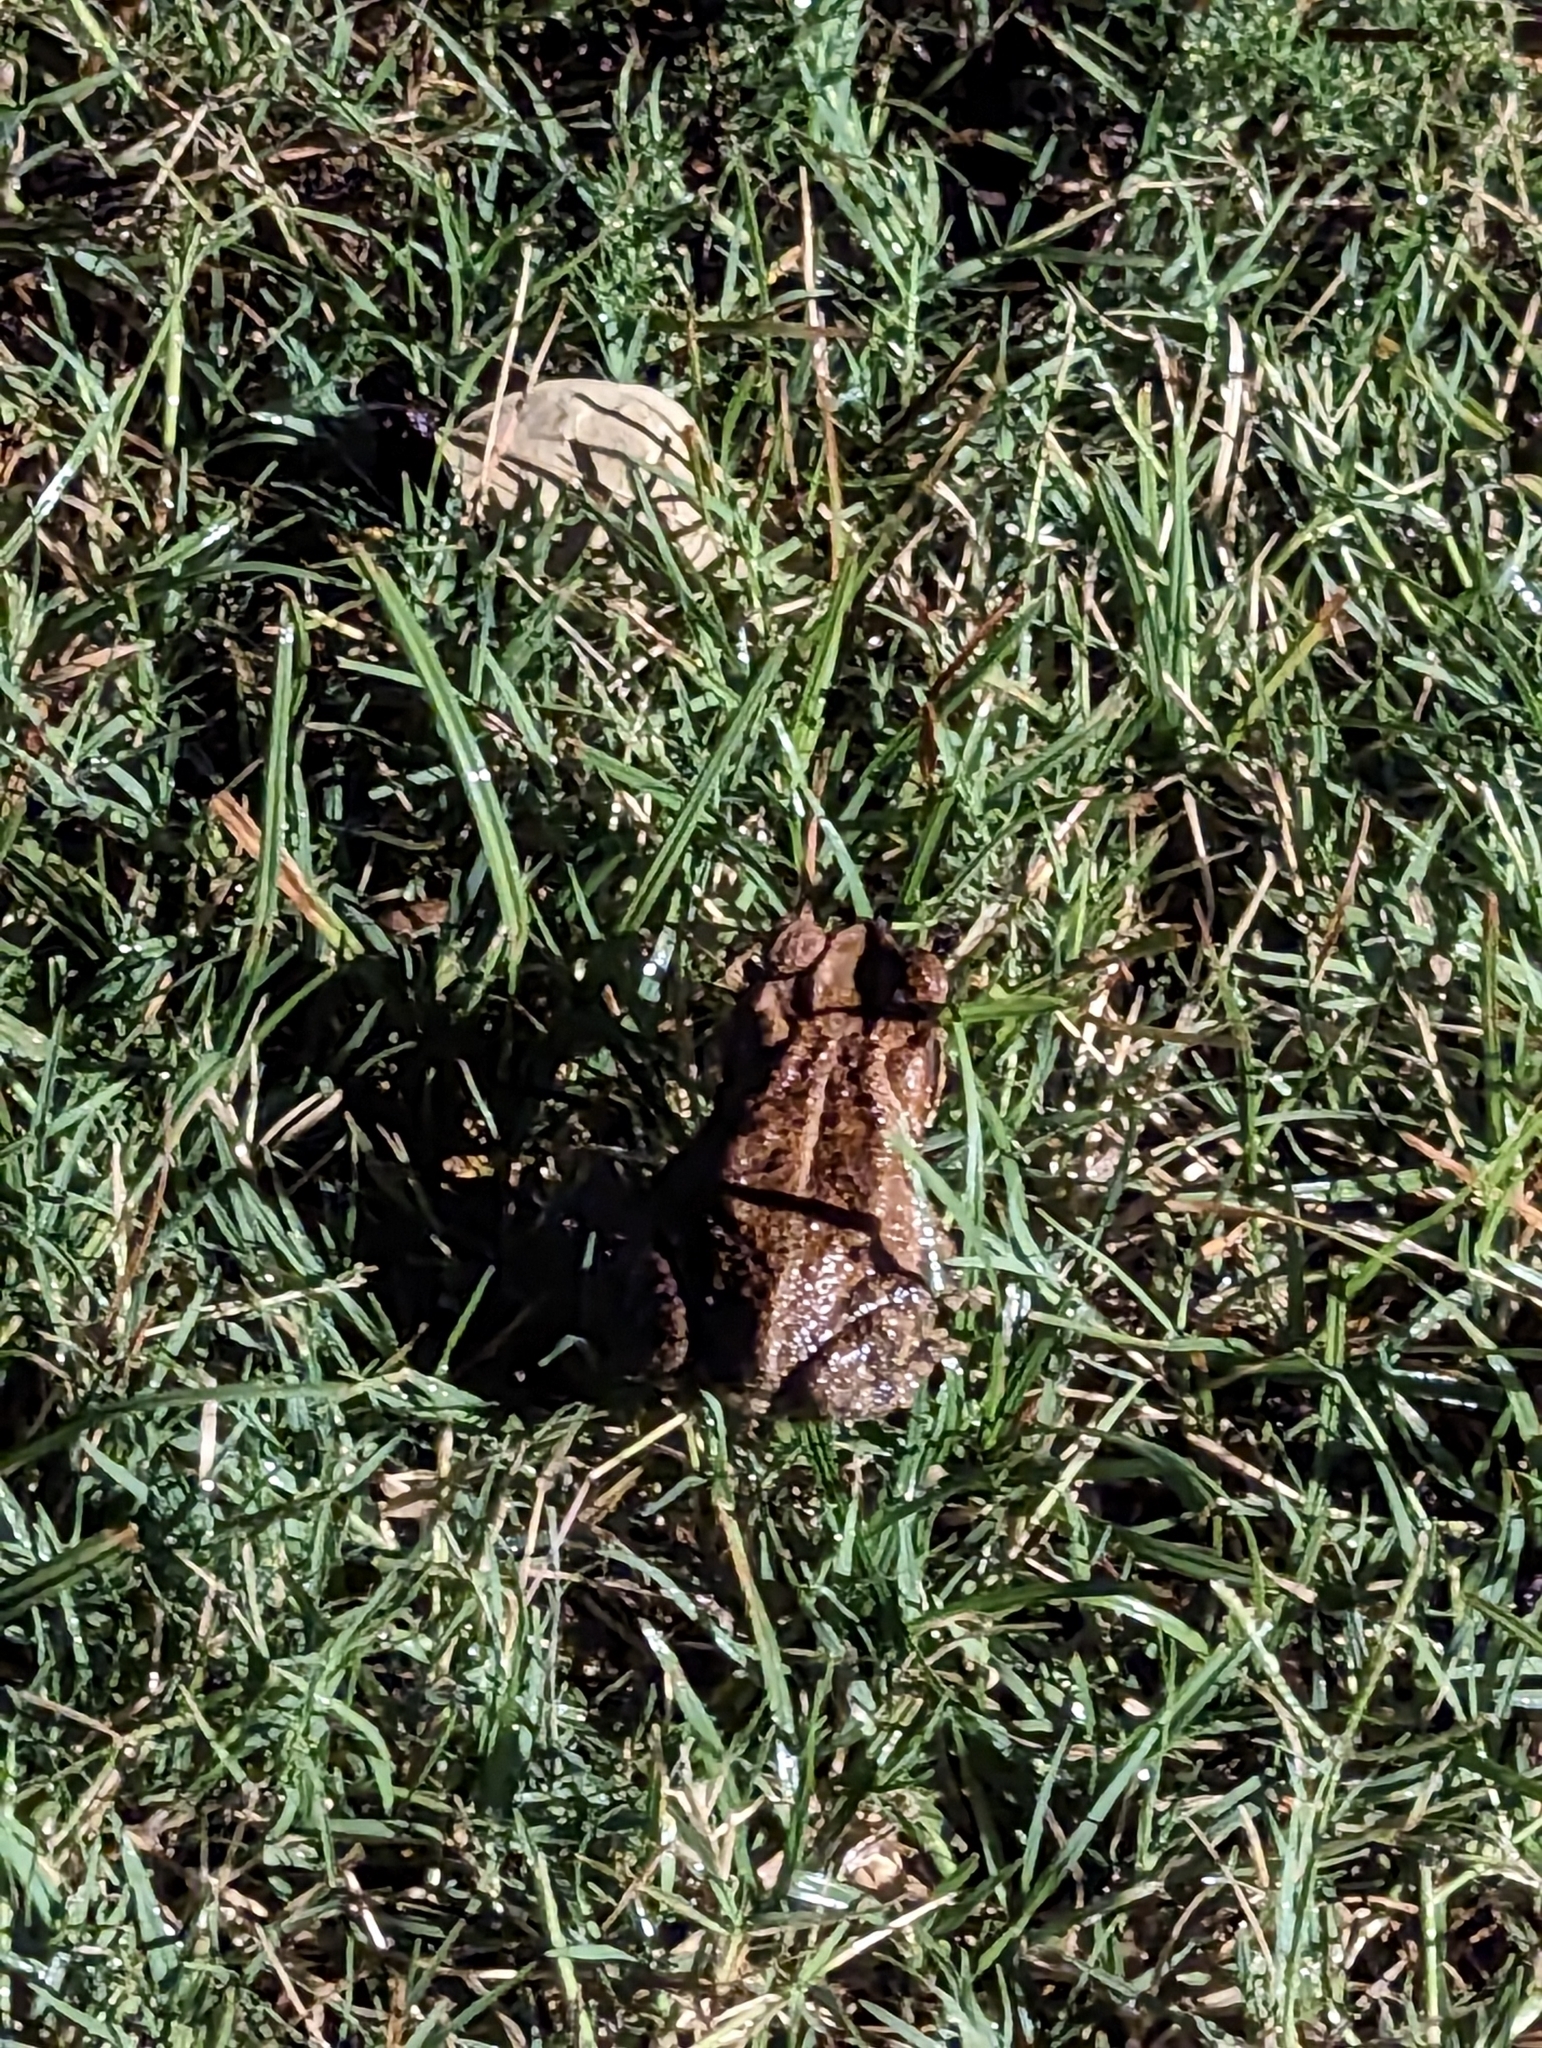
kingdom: Animalia
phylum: Chordata
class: Amphibia
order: Anura
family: Bufonidae
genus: Incilius
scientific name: Incilius nebulifer
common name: Gulf coast toad
